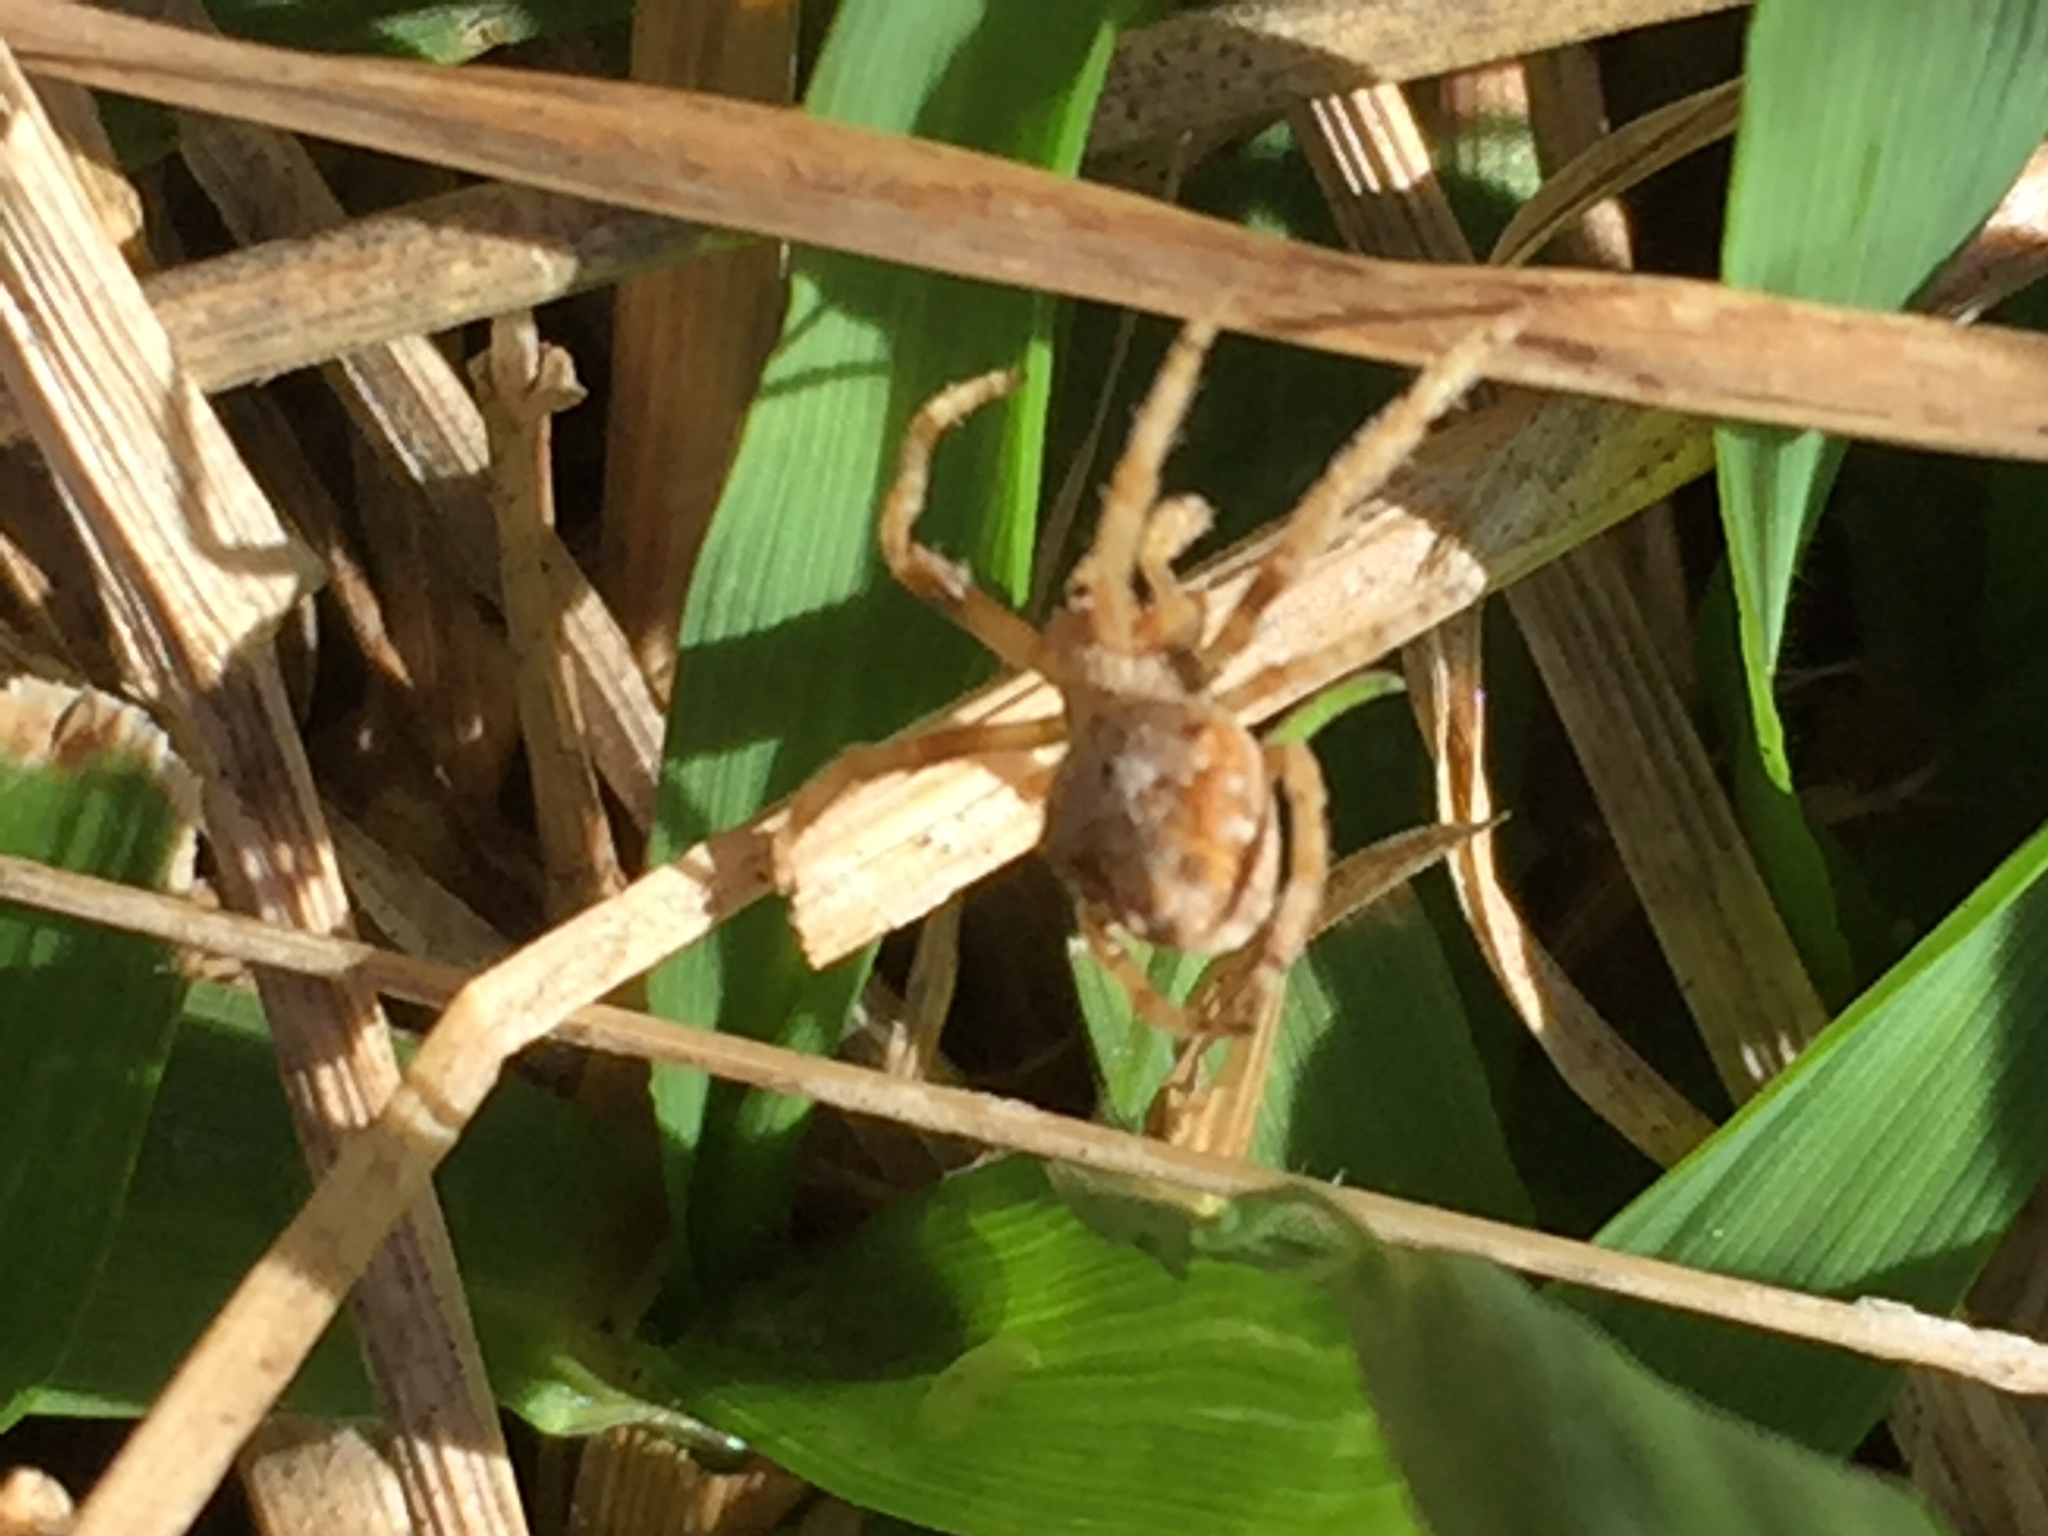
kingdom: Animalia
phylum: Arthropoda
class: Arachnida
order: Araneae
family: Araneidae
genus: Eriophora
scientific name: Eriophora pustulosa
